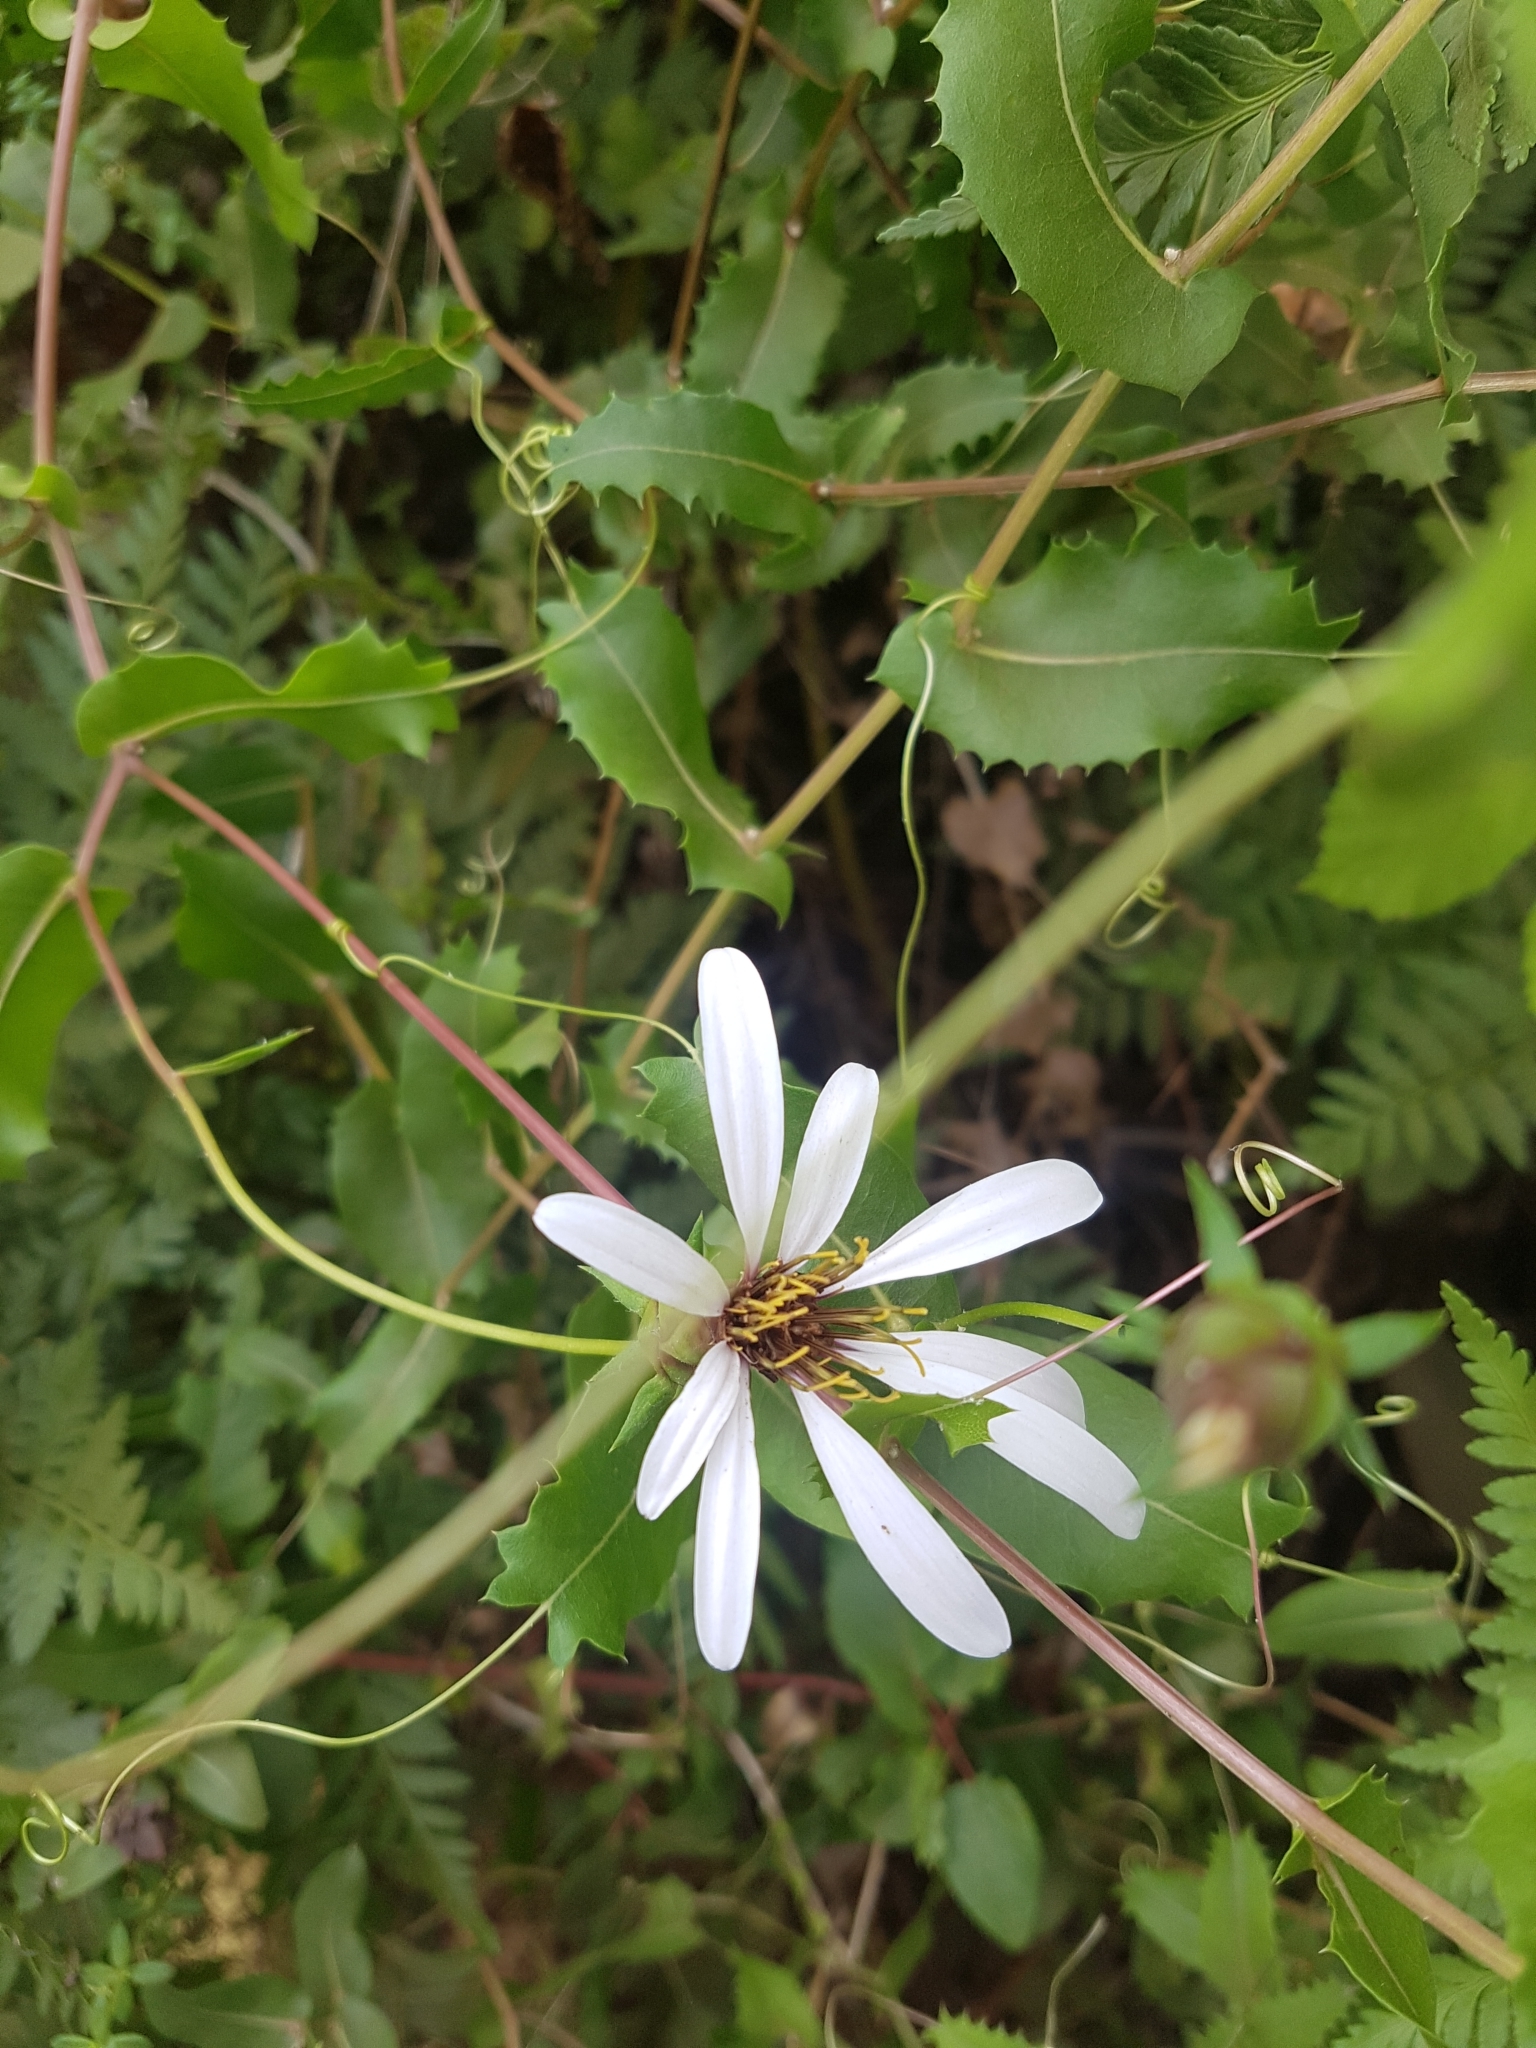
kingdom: Plantae
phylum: Tracheophyta
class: Magnoliopsida
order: Asterales
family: Asteraceae
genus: Mutisia
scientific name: Mutisia spinosa
